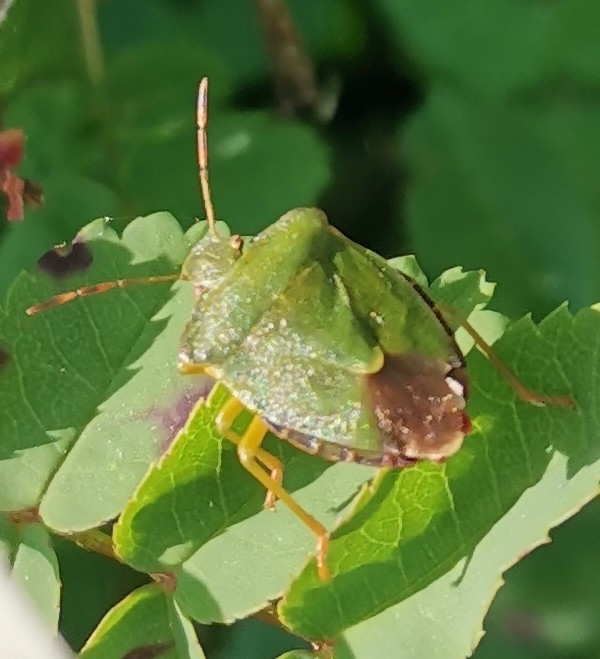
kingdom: Animalia
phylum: Arthropoda
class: Insecta
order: Hemiptera
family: Pentatomidae
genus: Palomena
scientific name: Palomena prasina
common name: Green shieldbug
